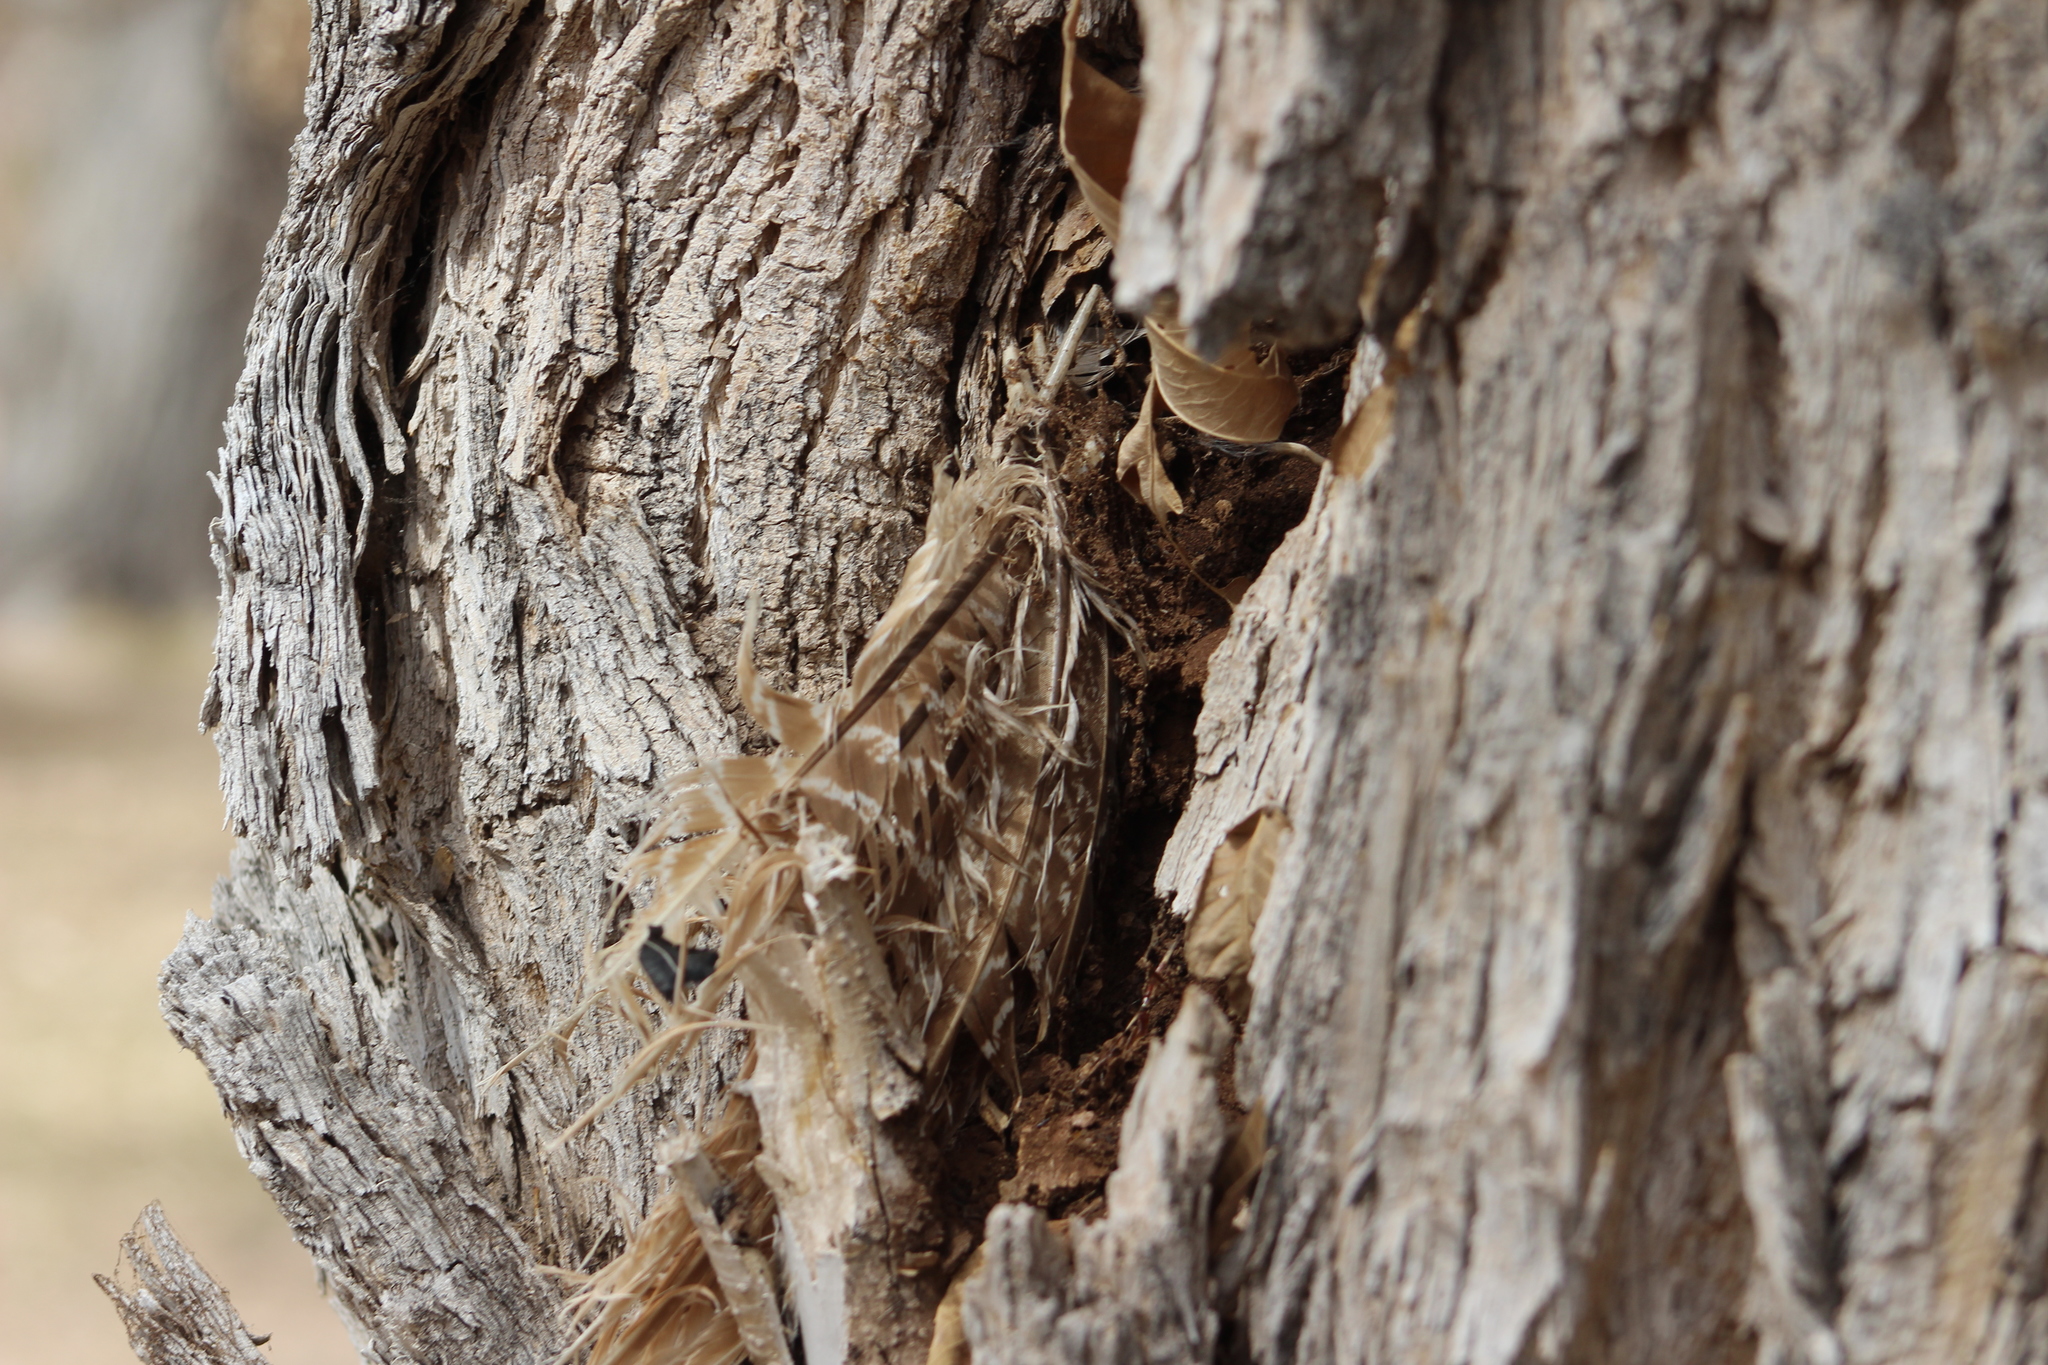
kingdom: Animalia
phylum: Chordata
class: Aves
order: Galliformes
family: Phasianidae
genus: Phasianus
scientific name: Phasianus colchicus
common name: Common pheasant
